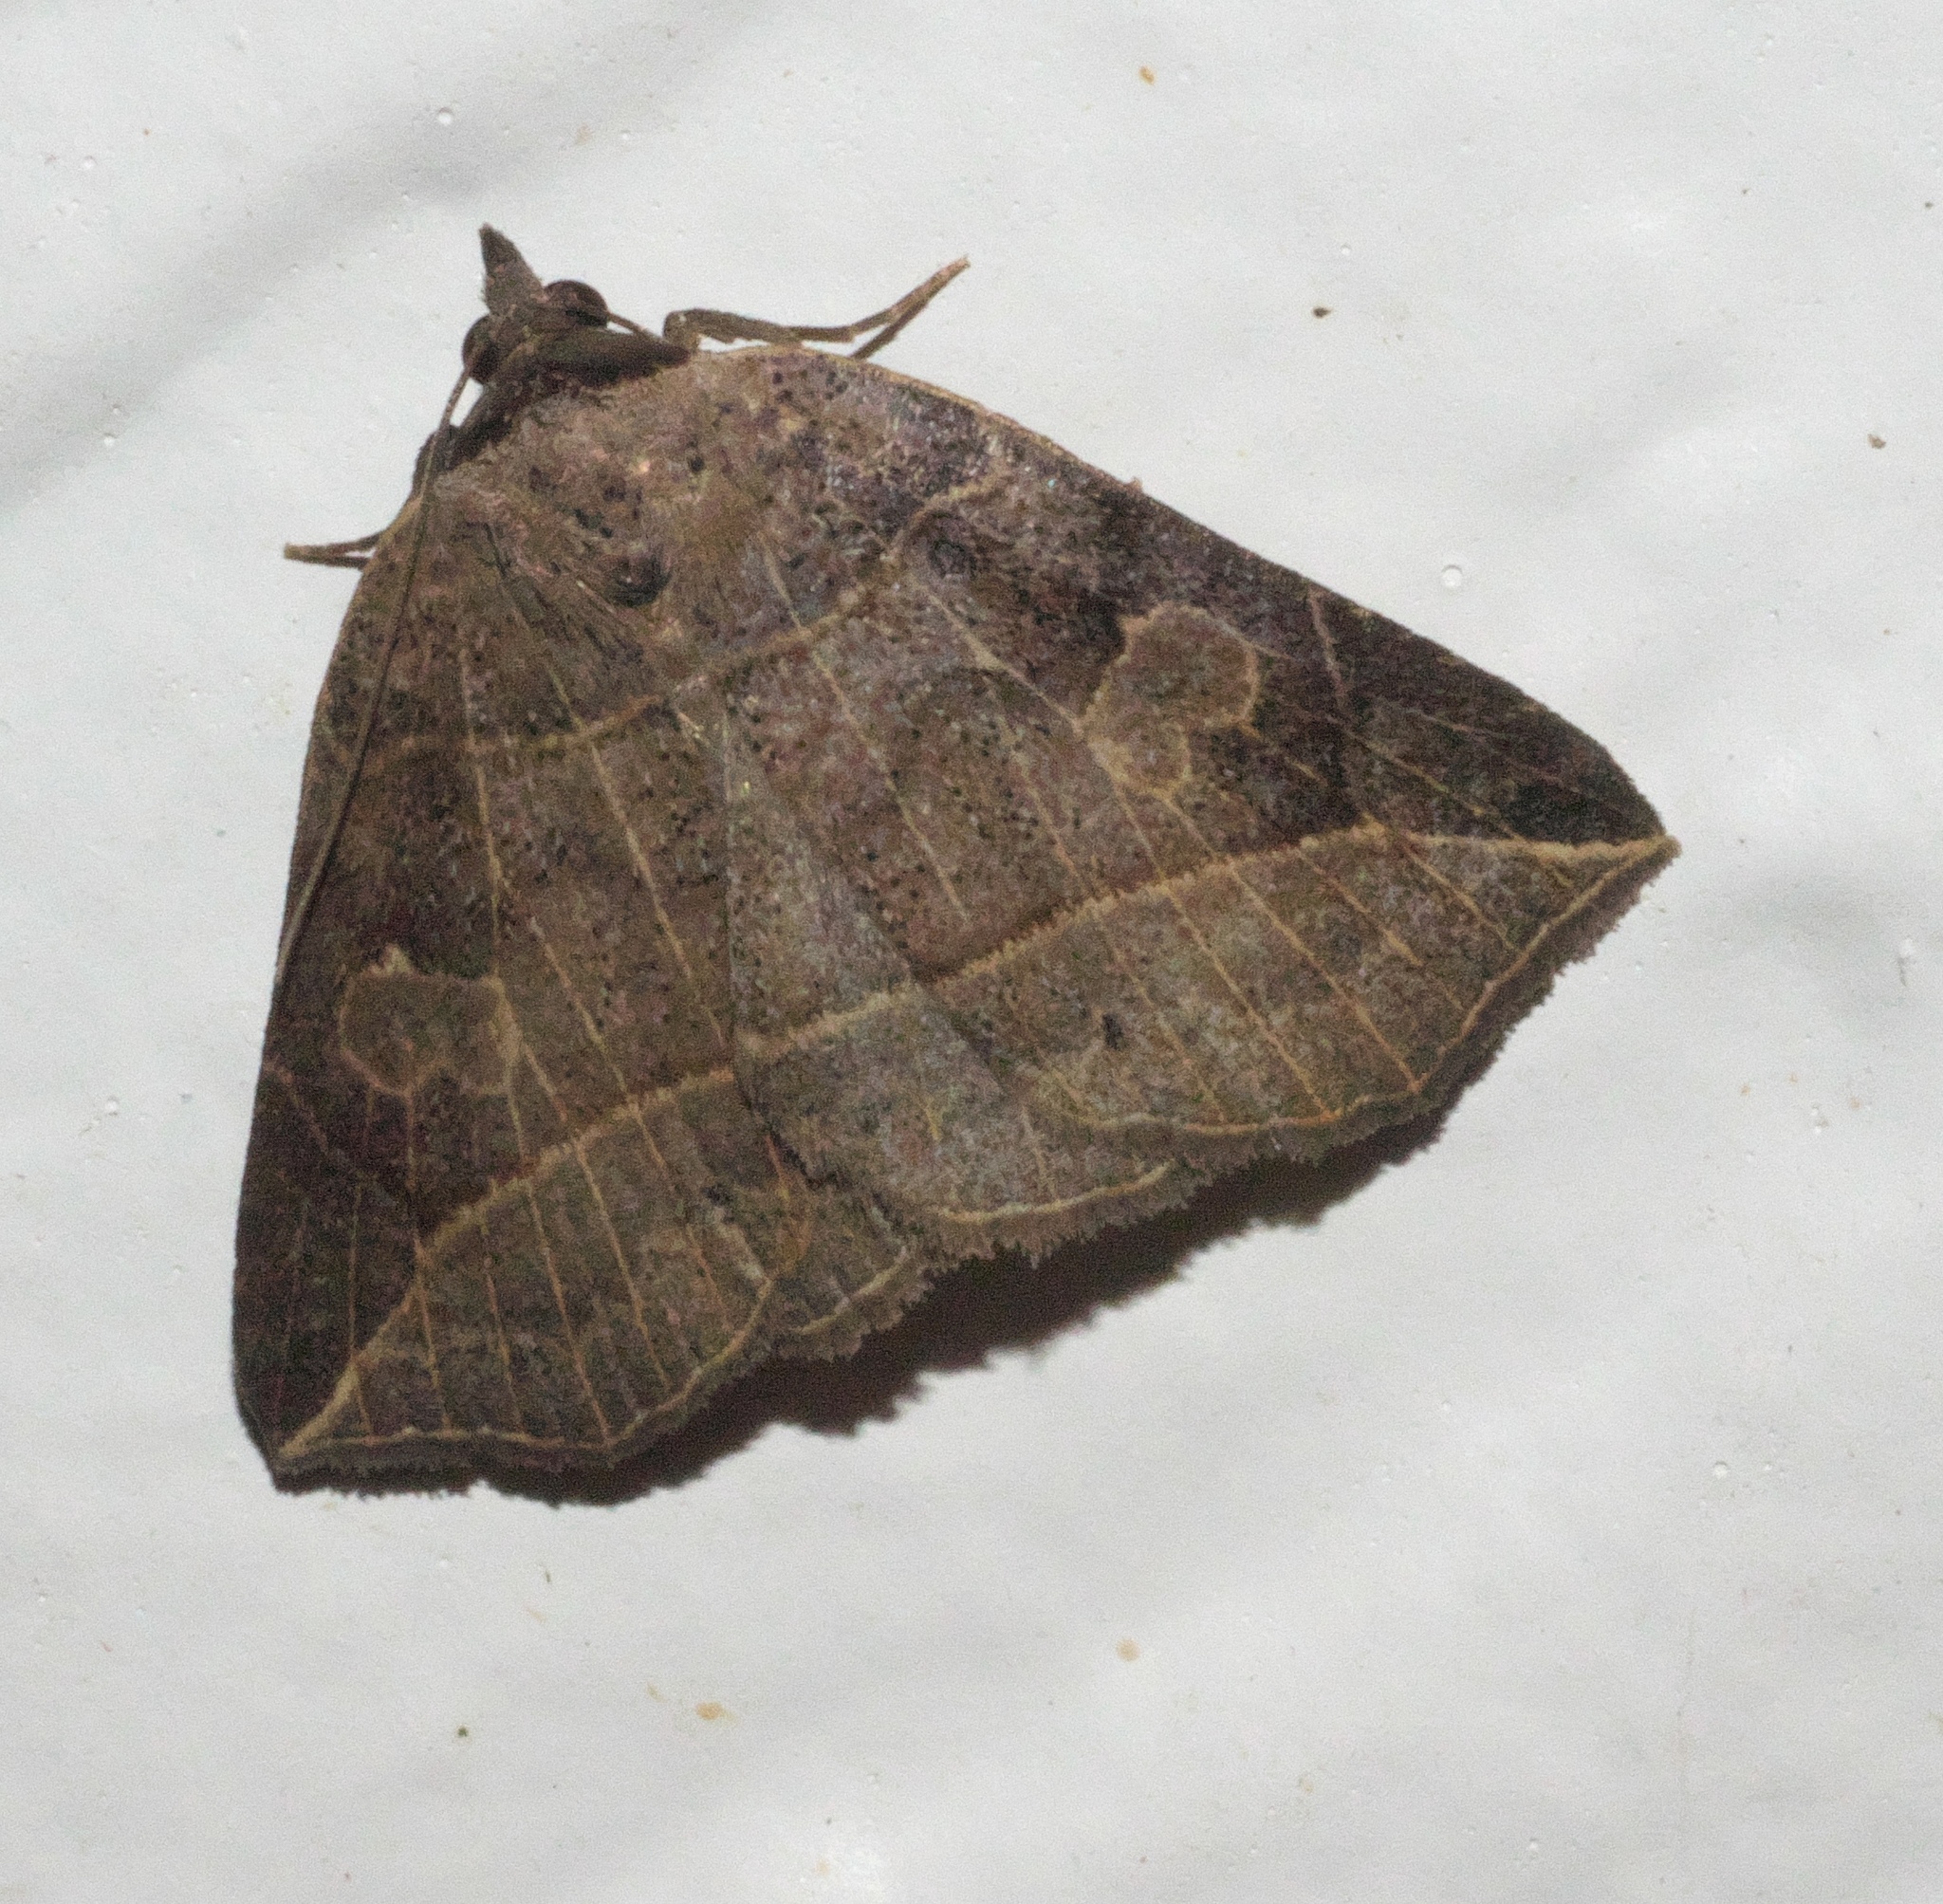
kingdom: Animalia
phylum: Arthropoda
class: Insecta
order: Lepidoptera
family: Erebidae
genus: Isogona
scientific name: Isogona tenuis
